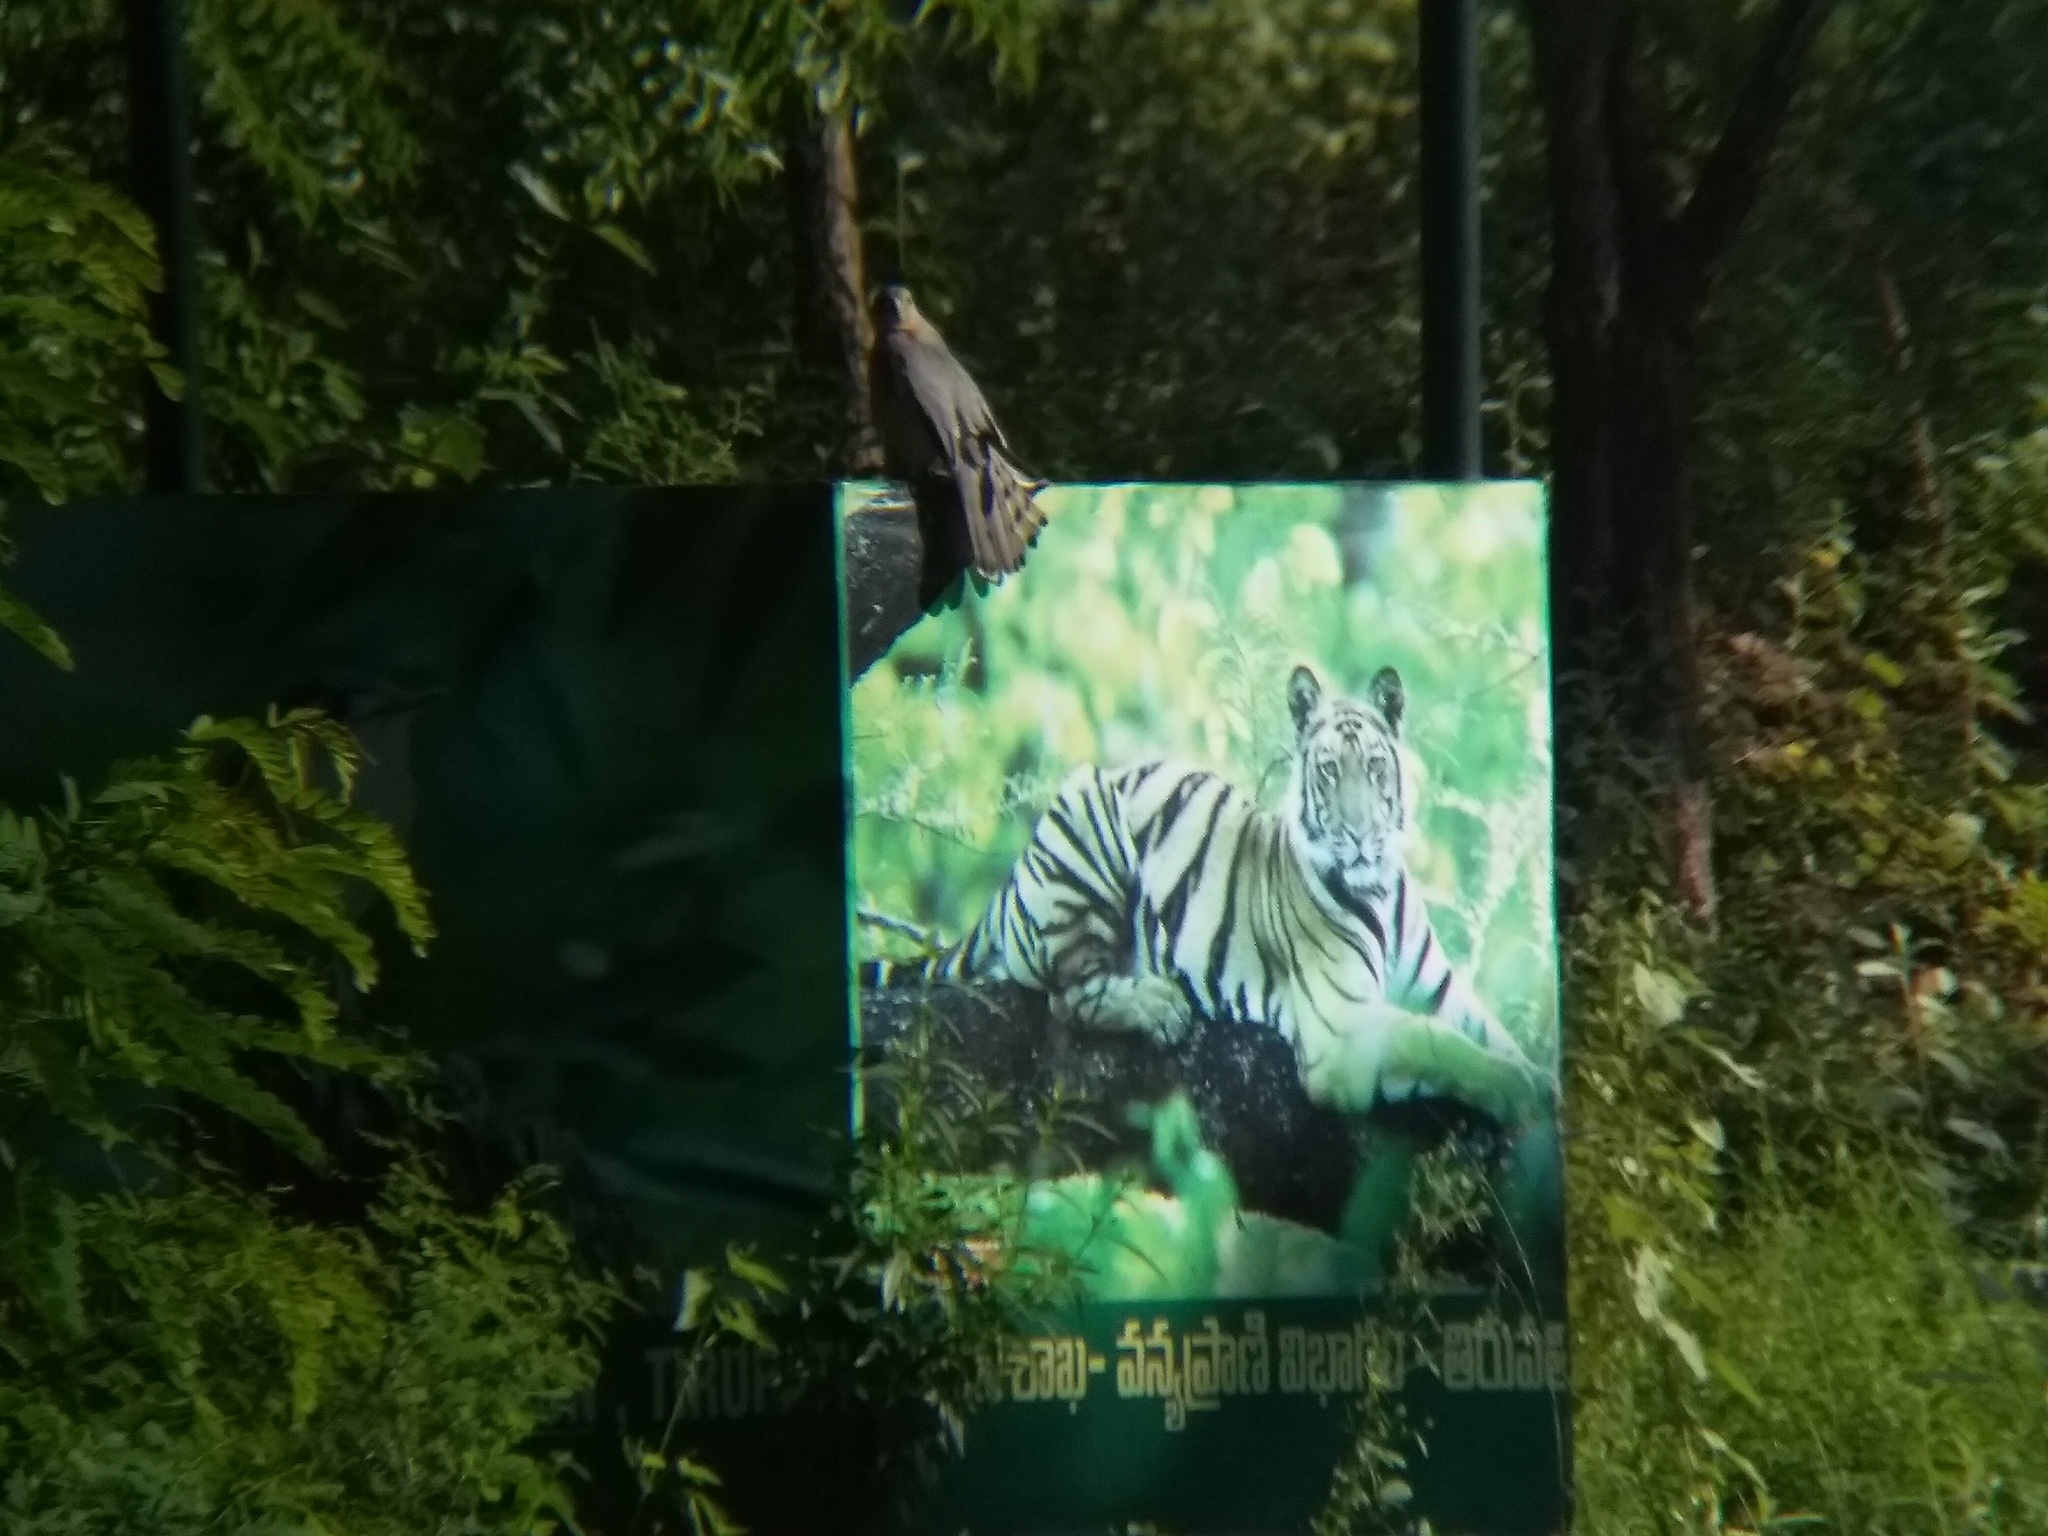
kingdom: Animalia
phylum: Chordata
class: Aves
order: Accipitriformes
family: Accipitridae
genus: Accipiter
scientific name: Accipiter badius
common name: Shikra
